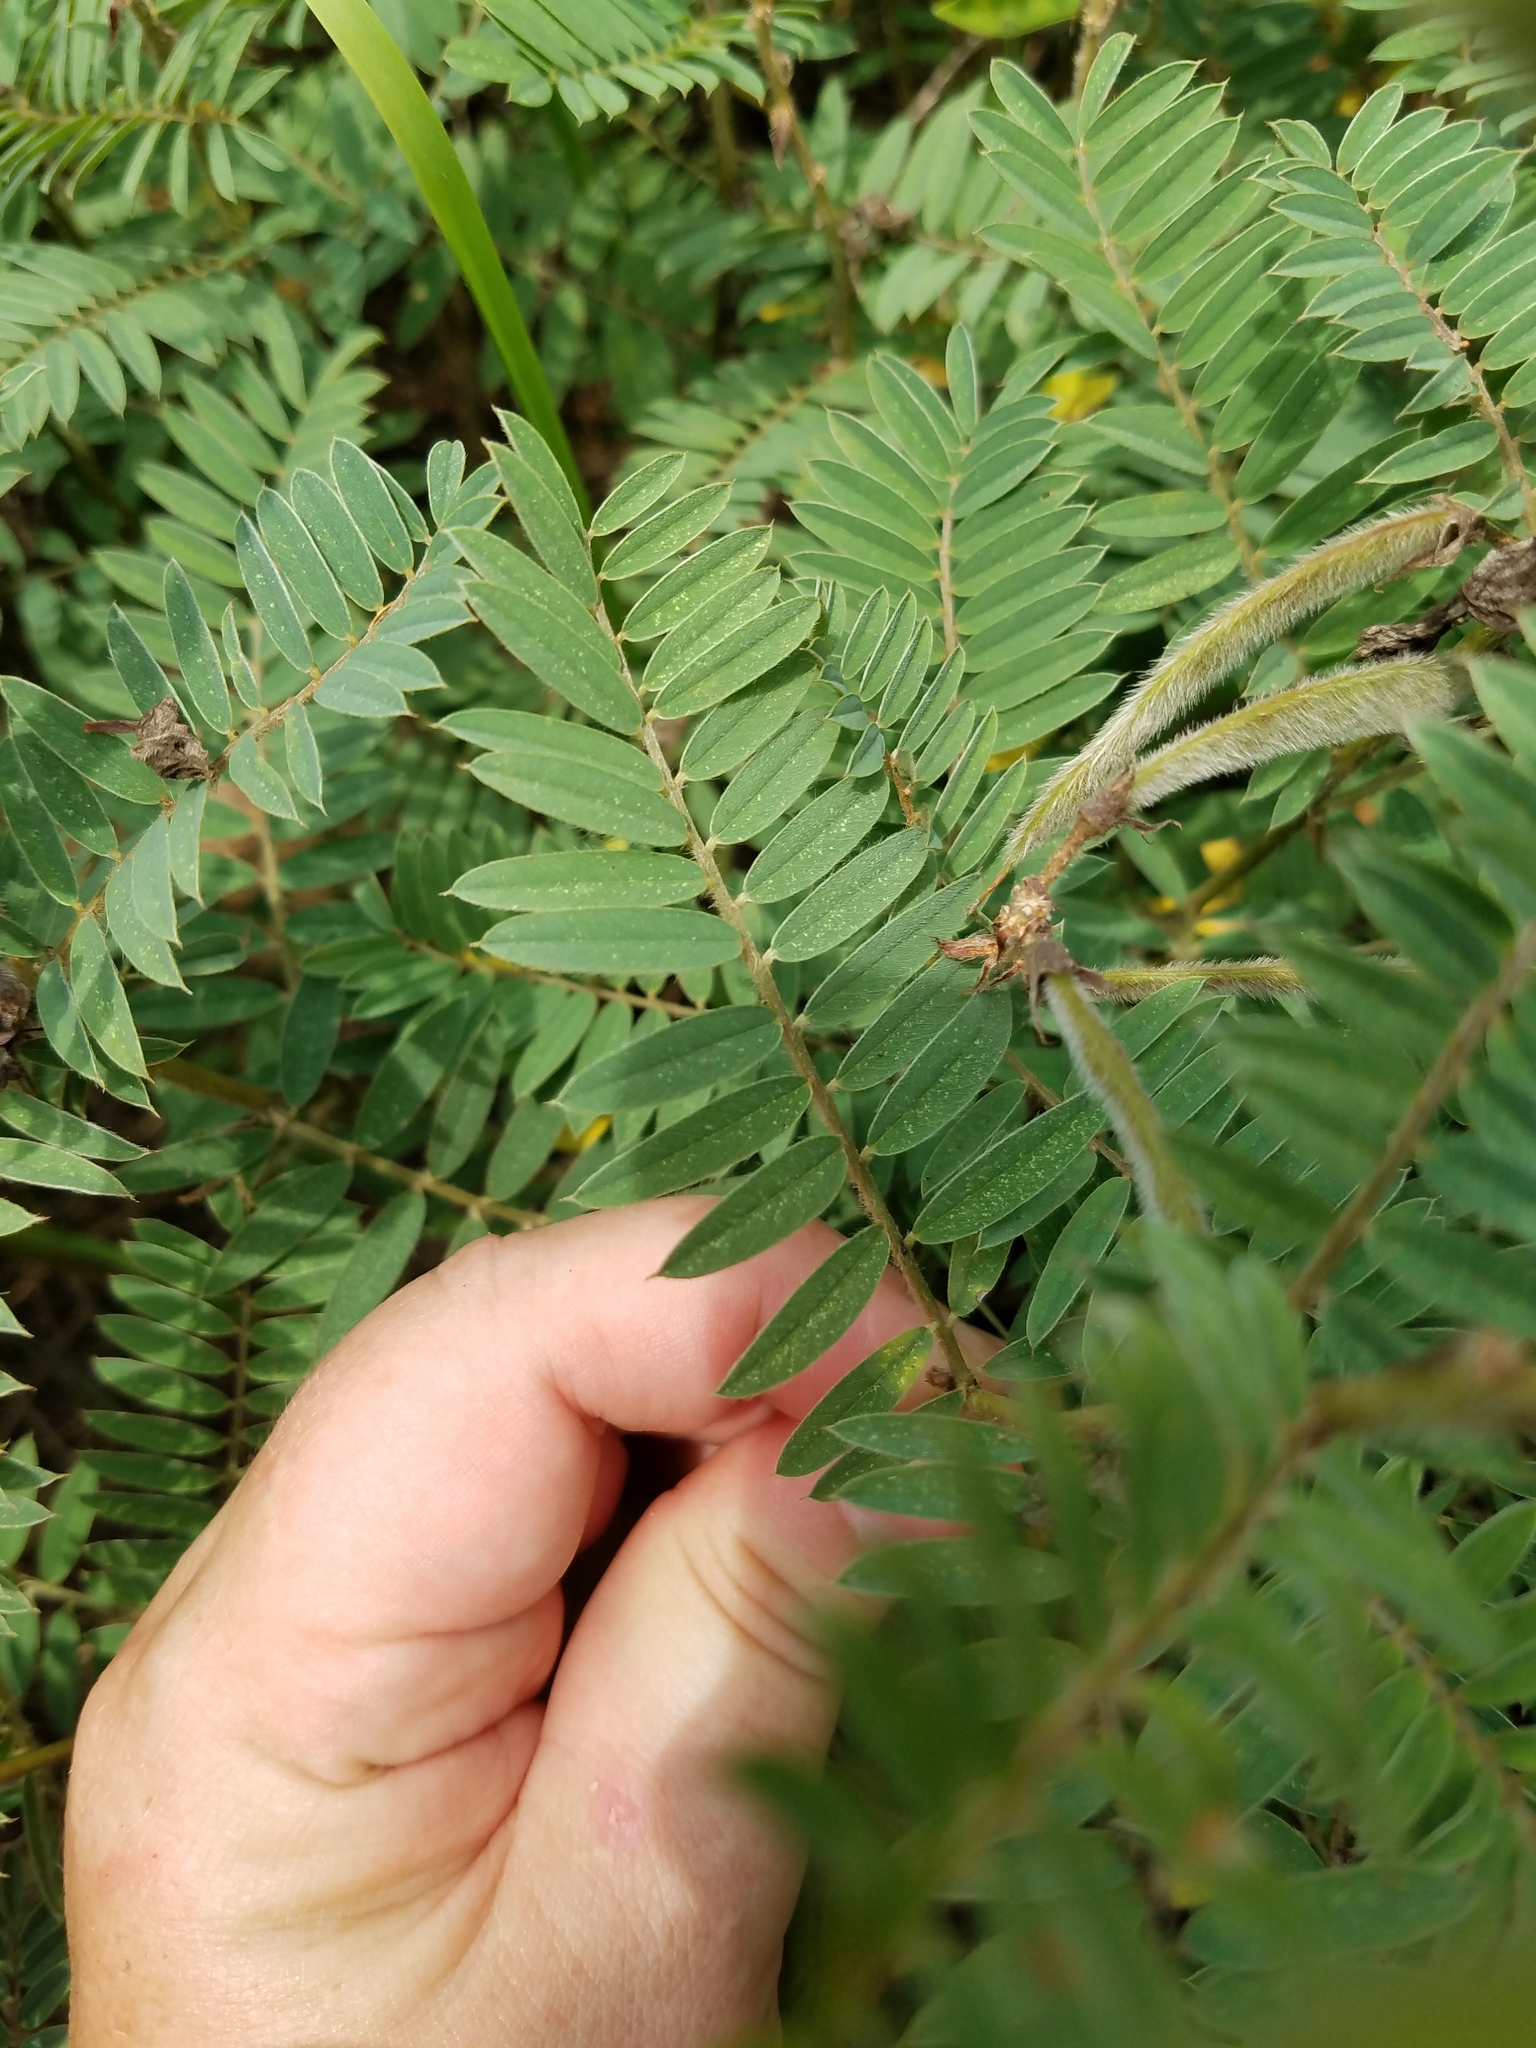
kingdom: Plantae
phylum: Tracheophyta
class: Magnoliopsida
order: Fabales
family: Fabaceae
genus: Tephrosia
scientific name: Tephrosia virginiana
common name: Rabbit-pea
